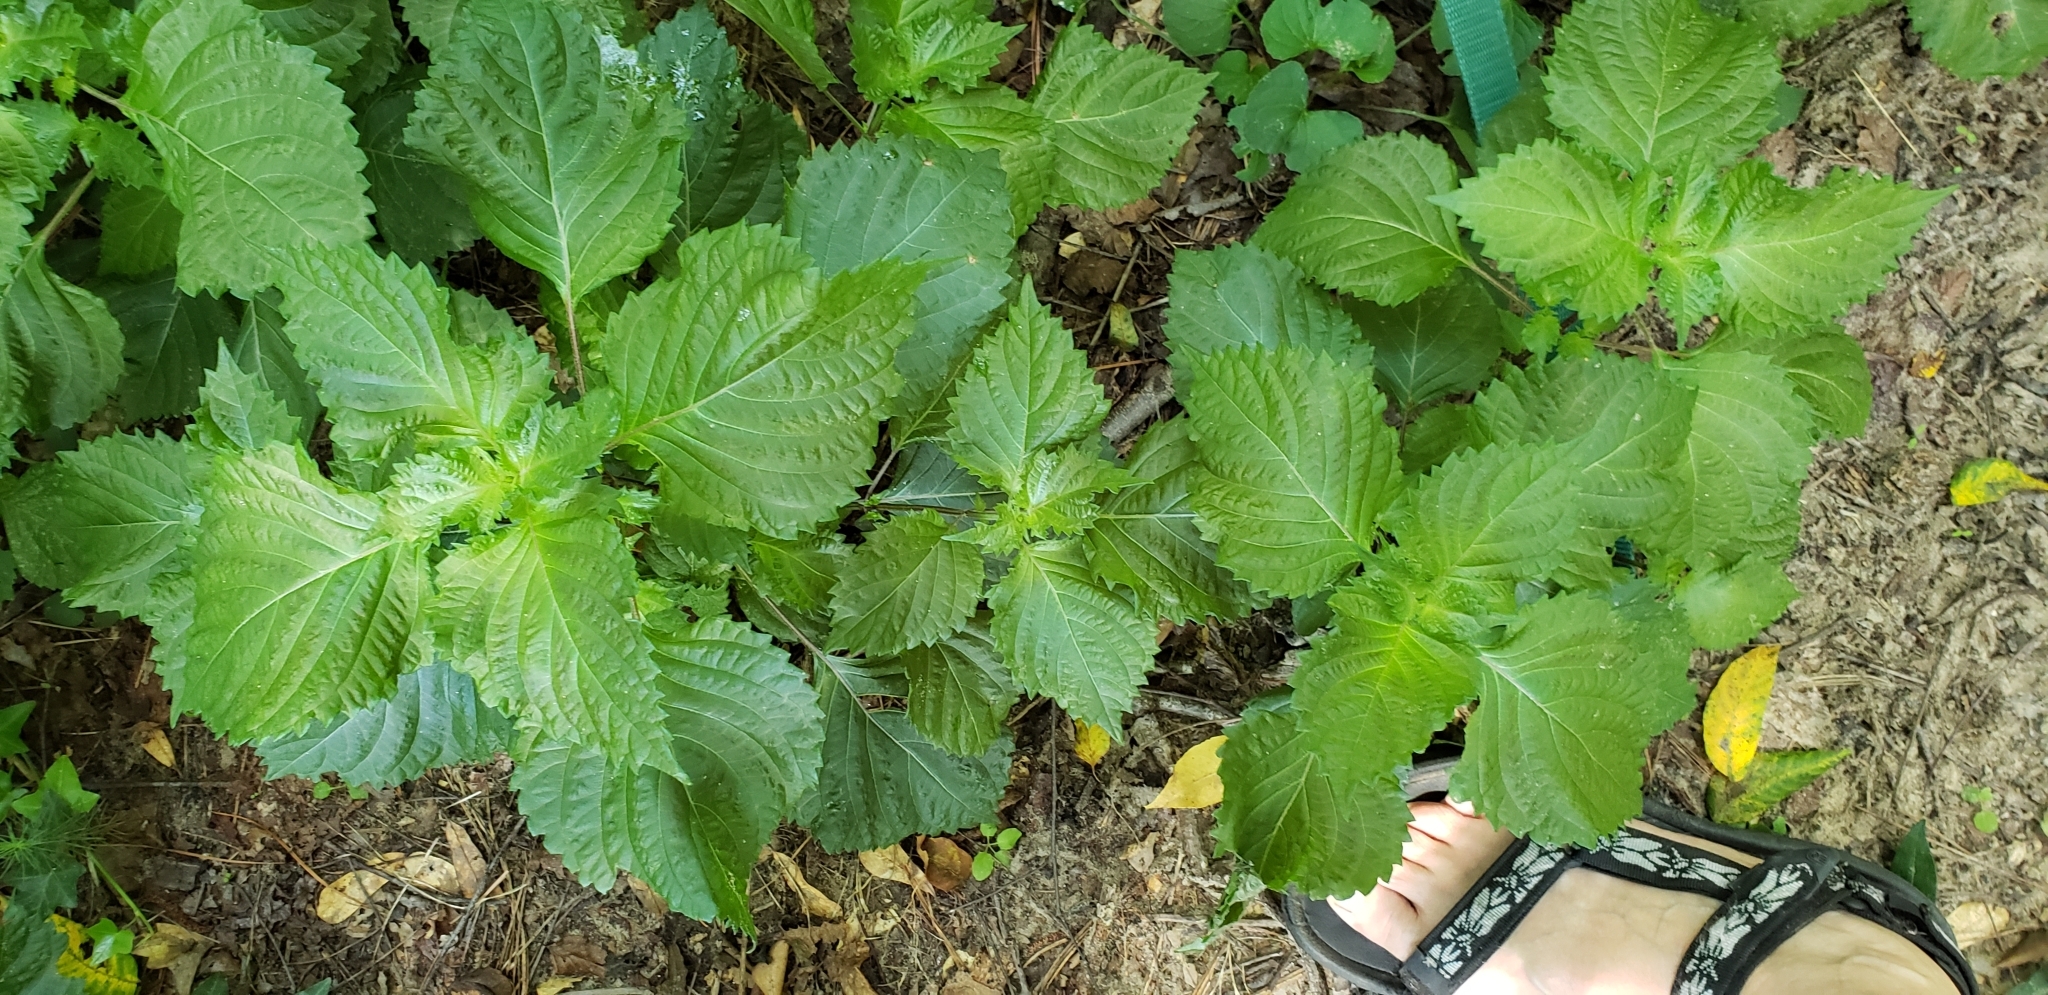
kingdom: Plantae
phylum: Tracheophyta
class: Magnoliopsida
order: Lamiales
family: Lamiaceae
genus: Perilla
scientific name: Perilla frutescens
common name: Perilla
